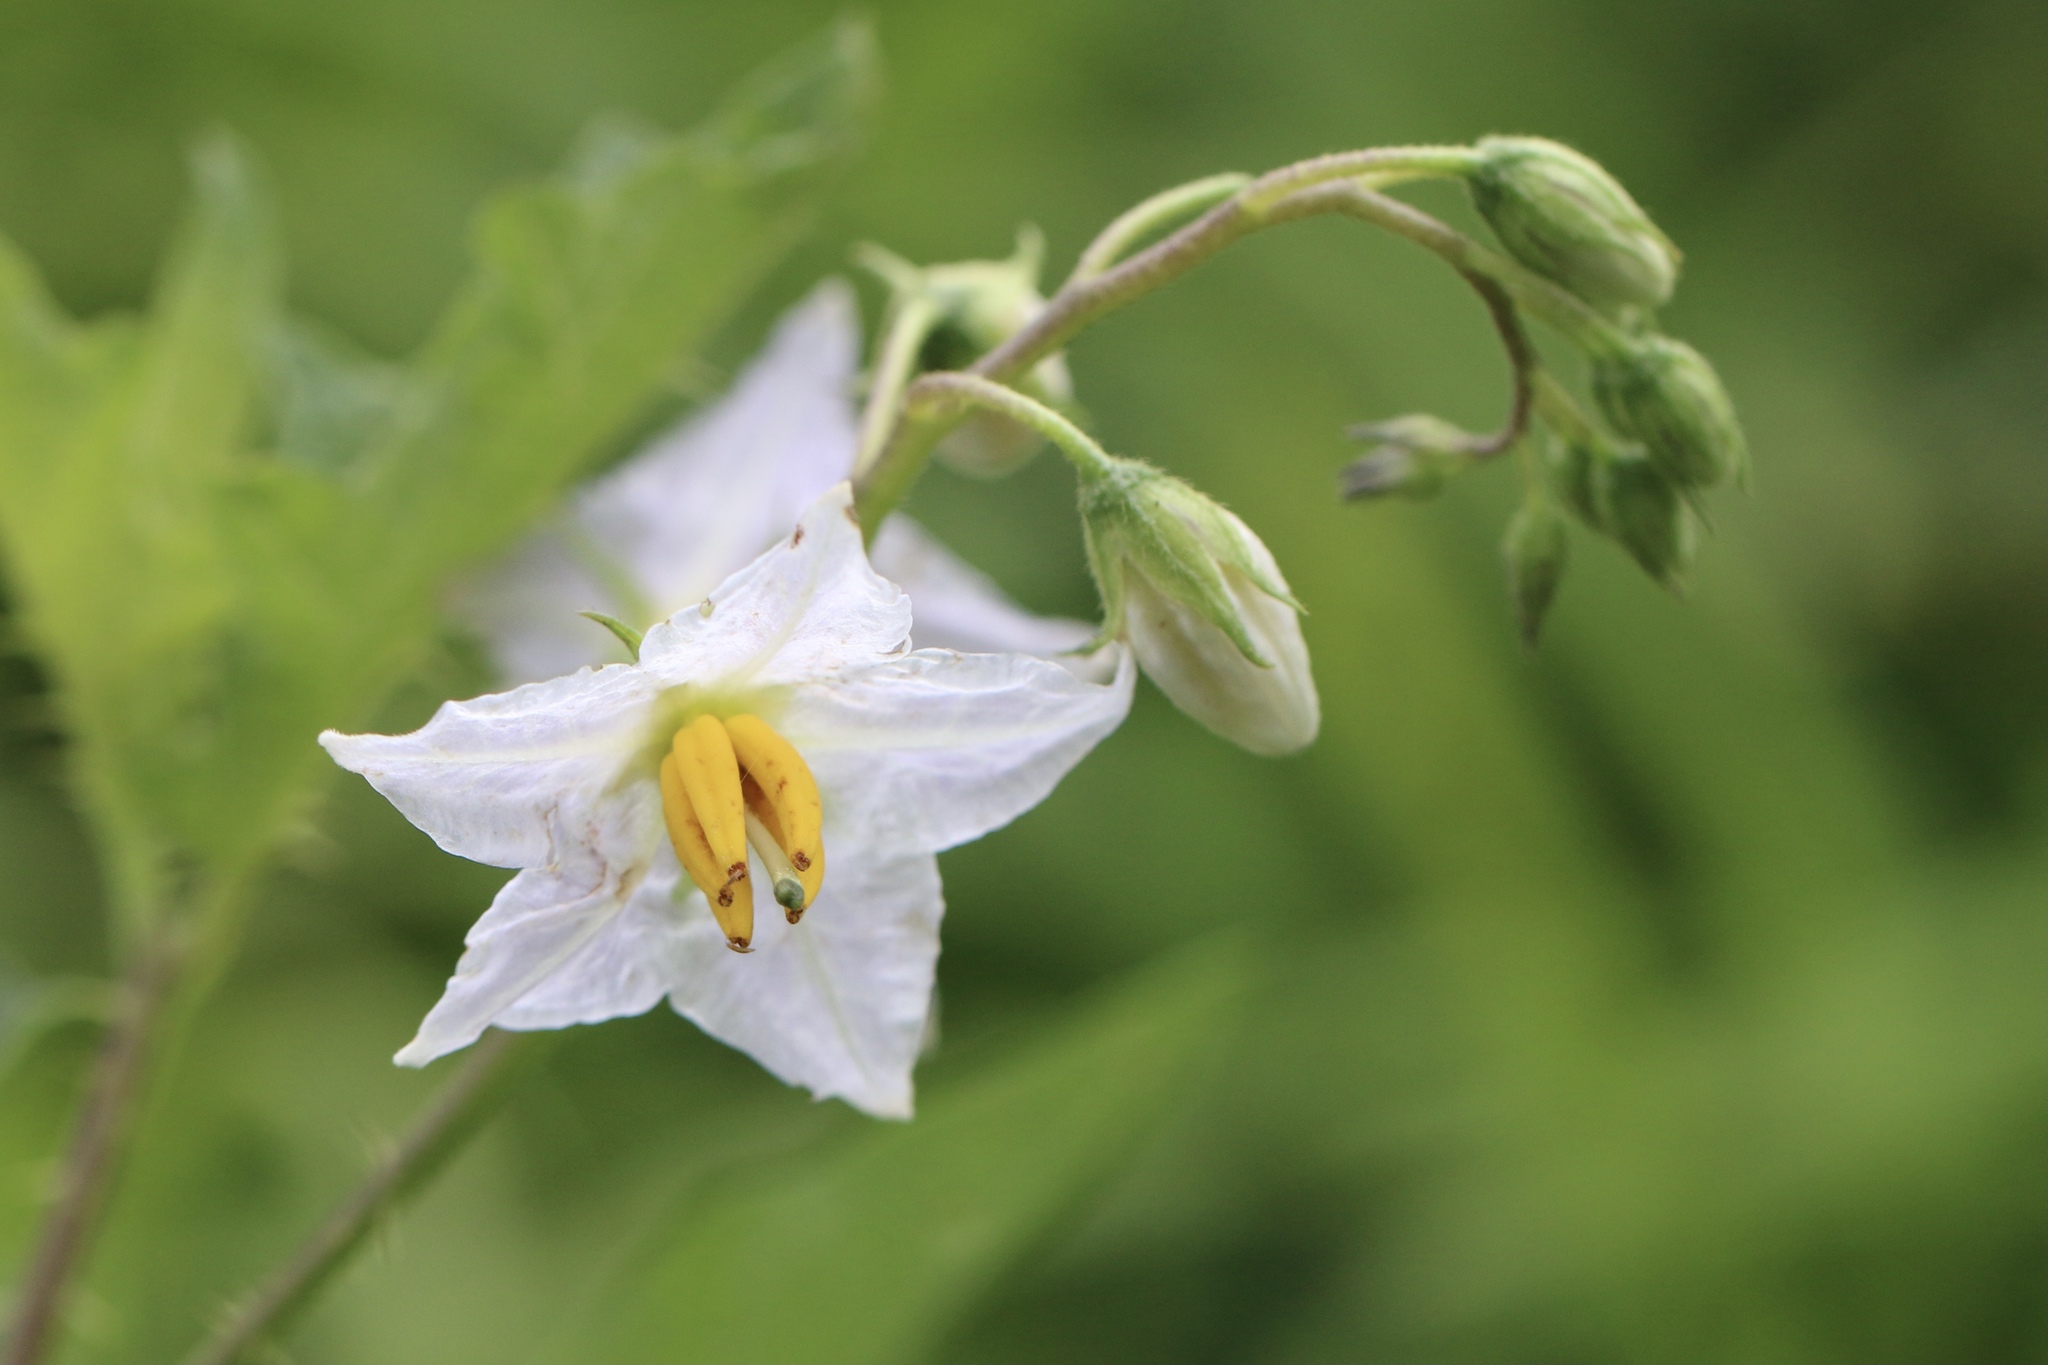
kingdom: Plantae
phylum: Tracheophyta
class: Magnoliopsida
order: Solanales
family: Solanaceae
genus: Solanum
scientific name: Solanum carolinense
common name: Horse-nettle
